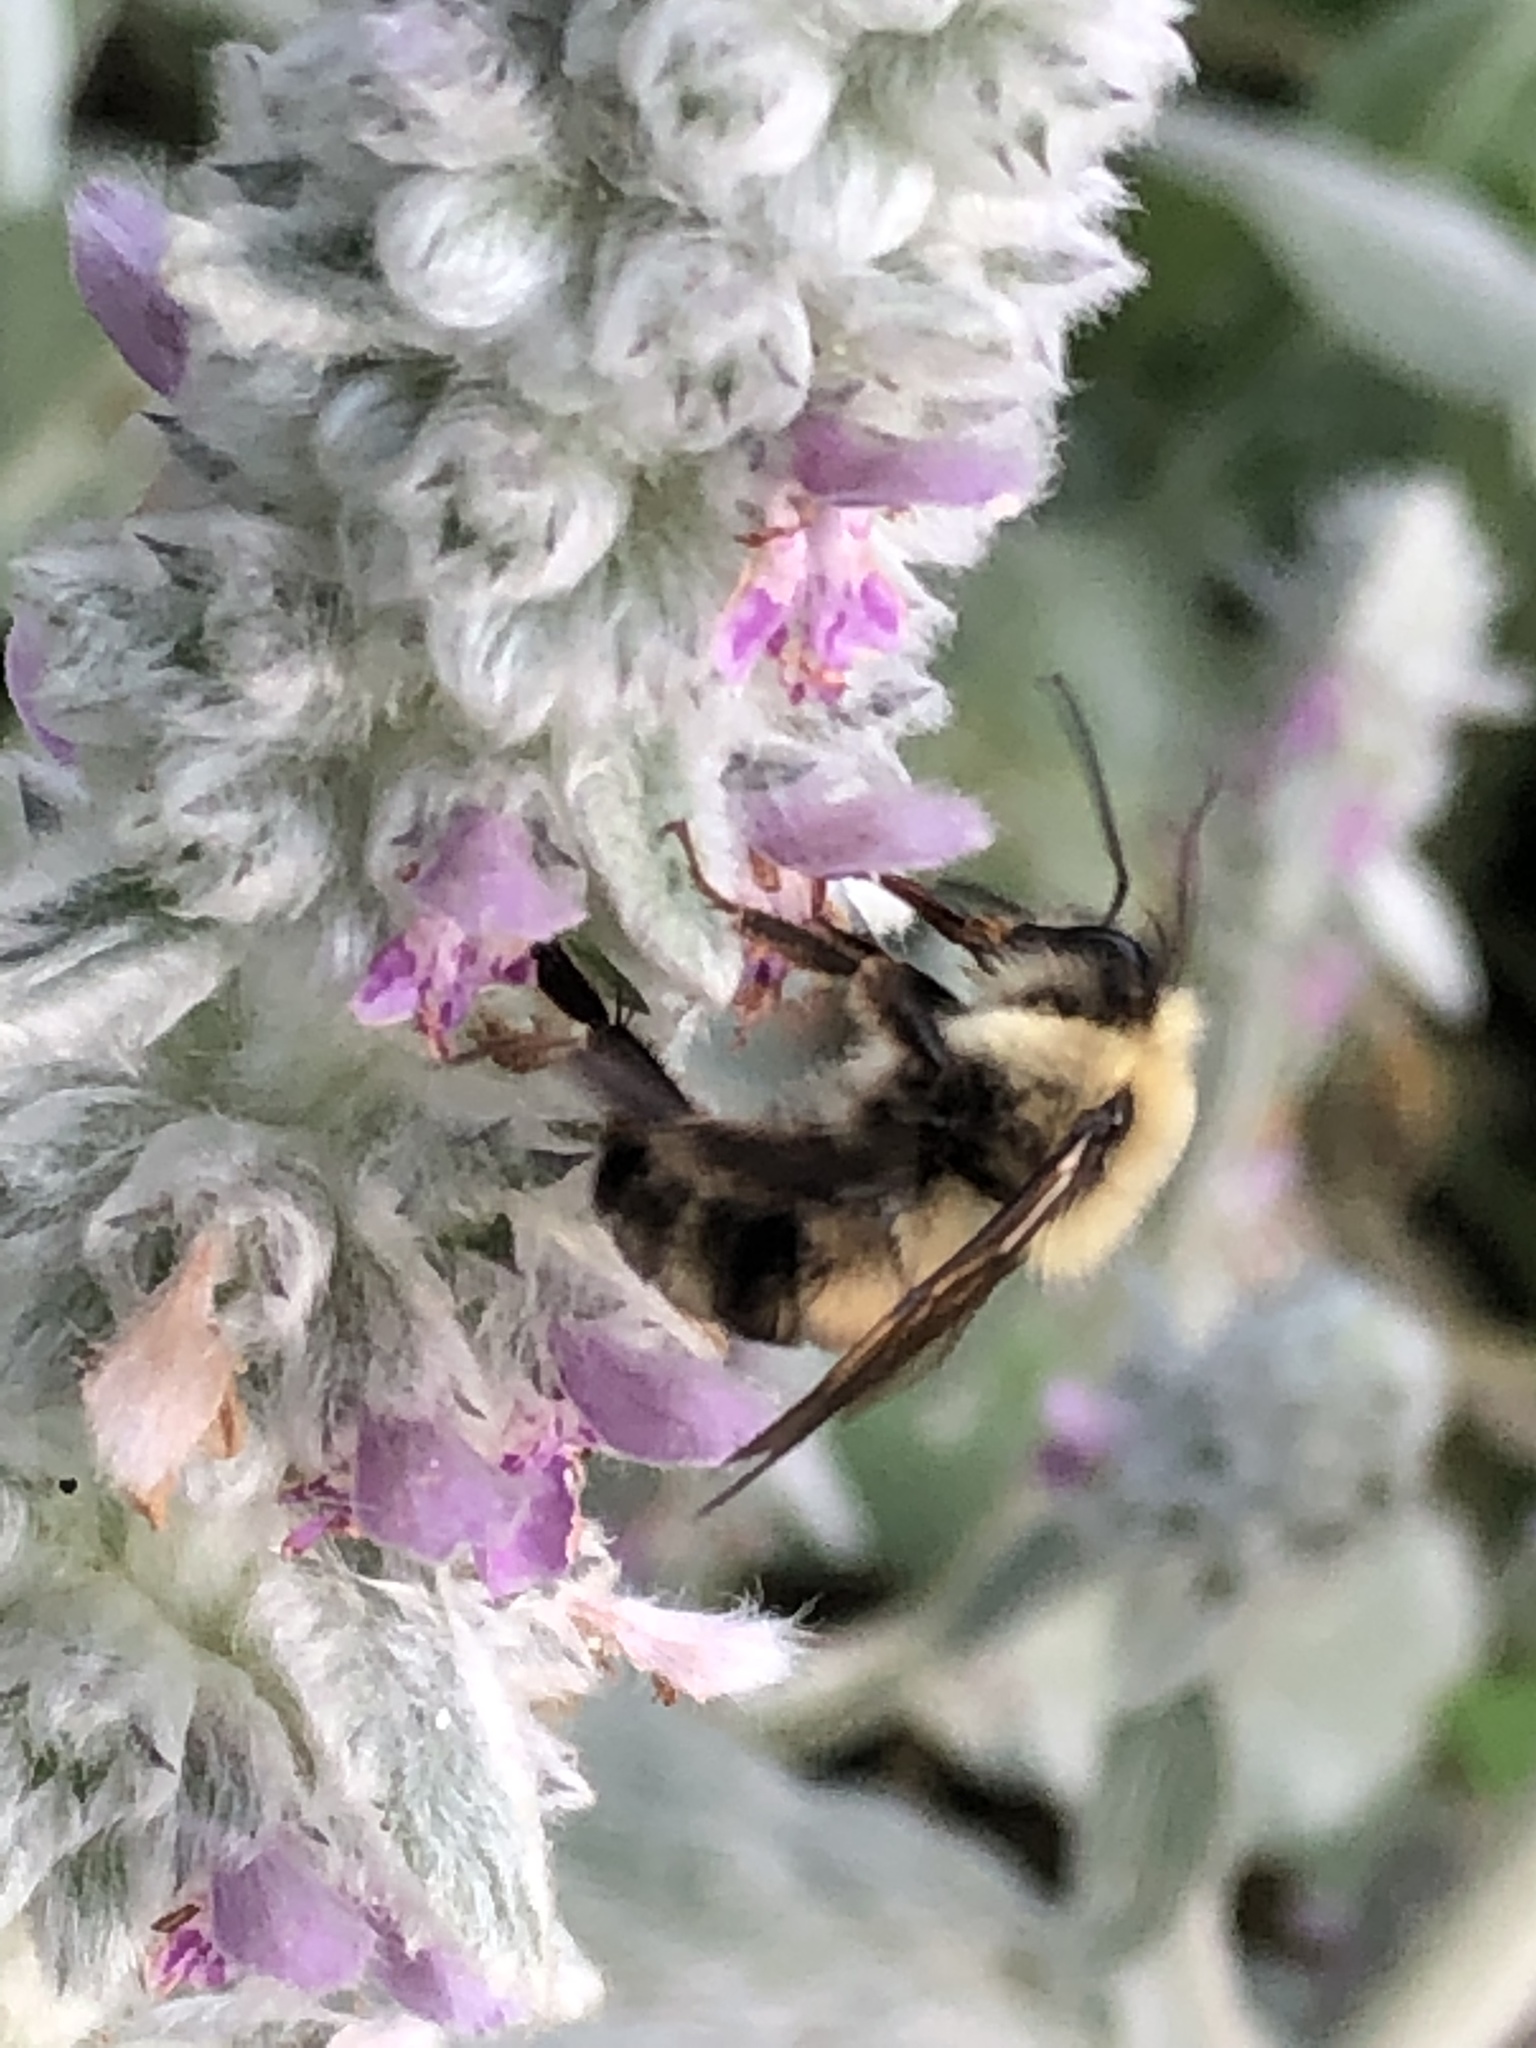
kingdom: Animalia
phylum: Arthropoda
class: Insecta
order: Hymenoptera
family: Apidae
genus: Bombus
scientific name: Bombus bimaculatus
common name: Two-spotted bumble bee
